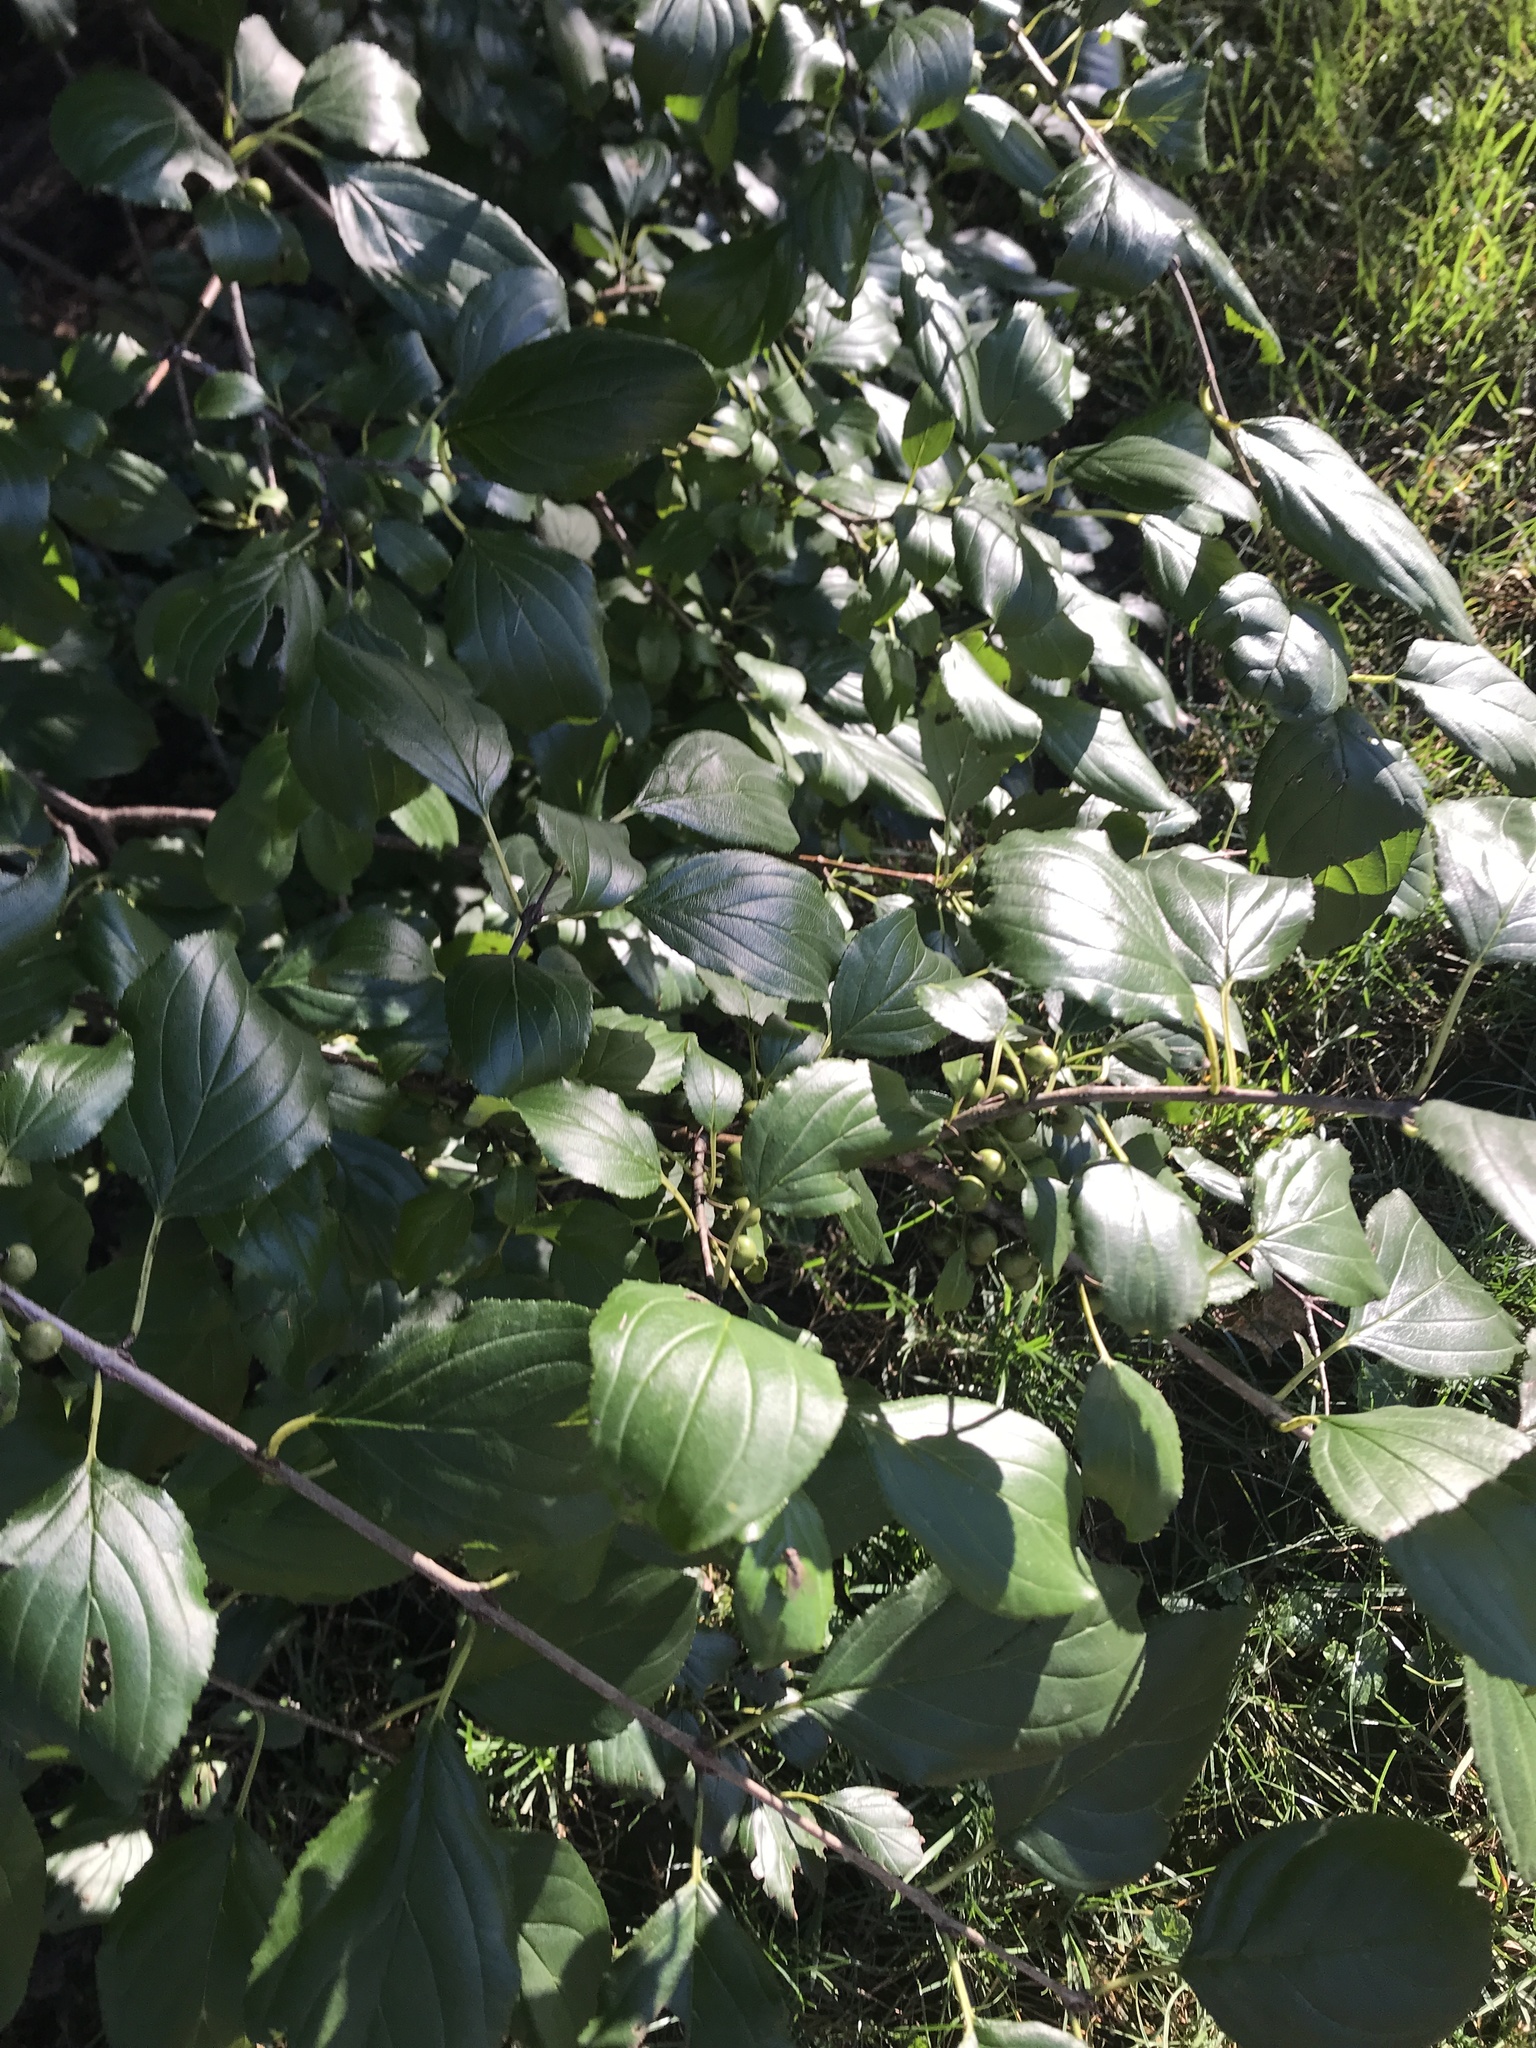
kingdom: Plantae
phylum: Tracheophyta
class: Magnoliopsida
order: Rosales
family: Rhamnaceae
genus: Rhamnus
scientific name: Rhamnus cathartica
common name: Common buckthorn
